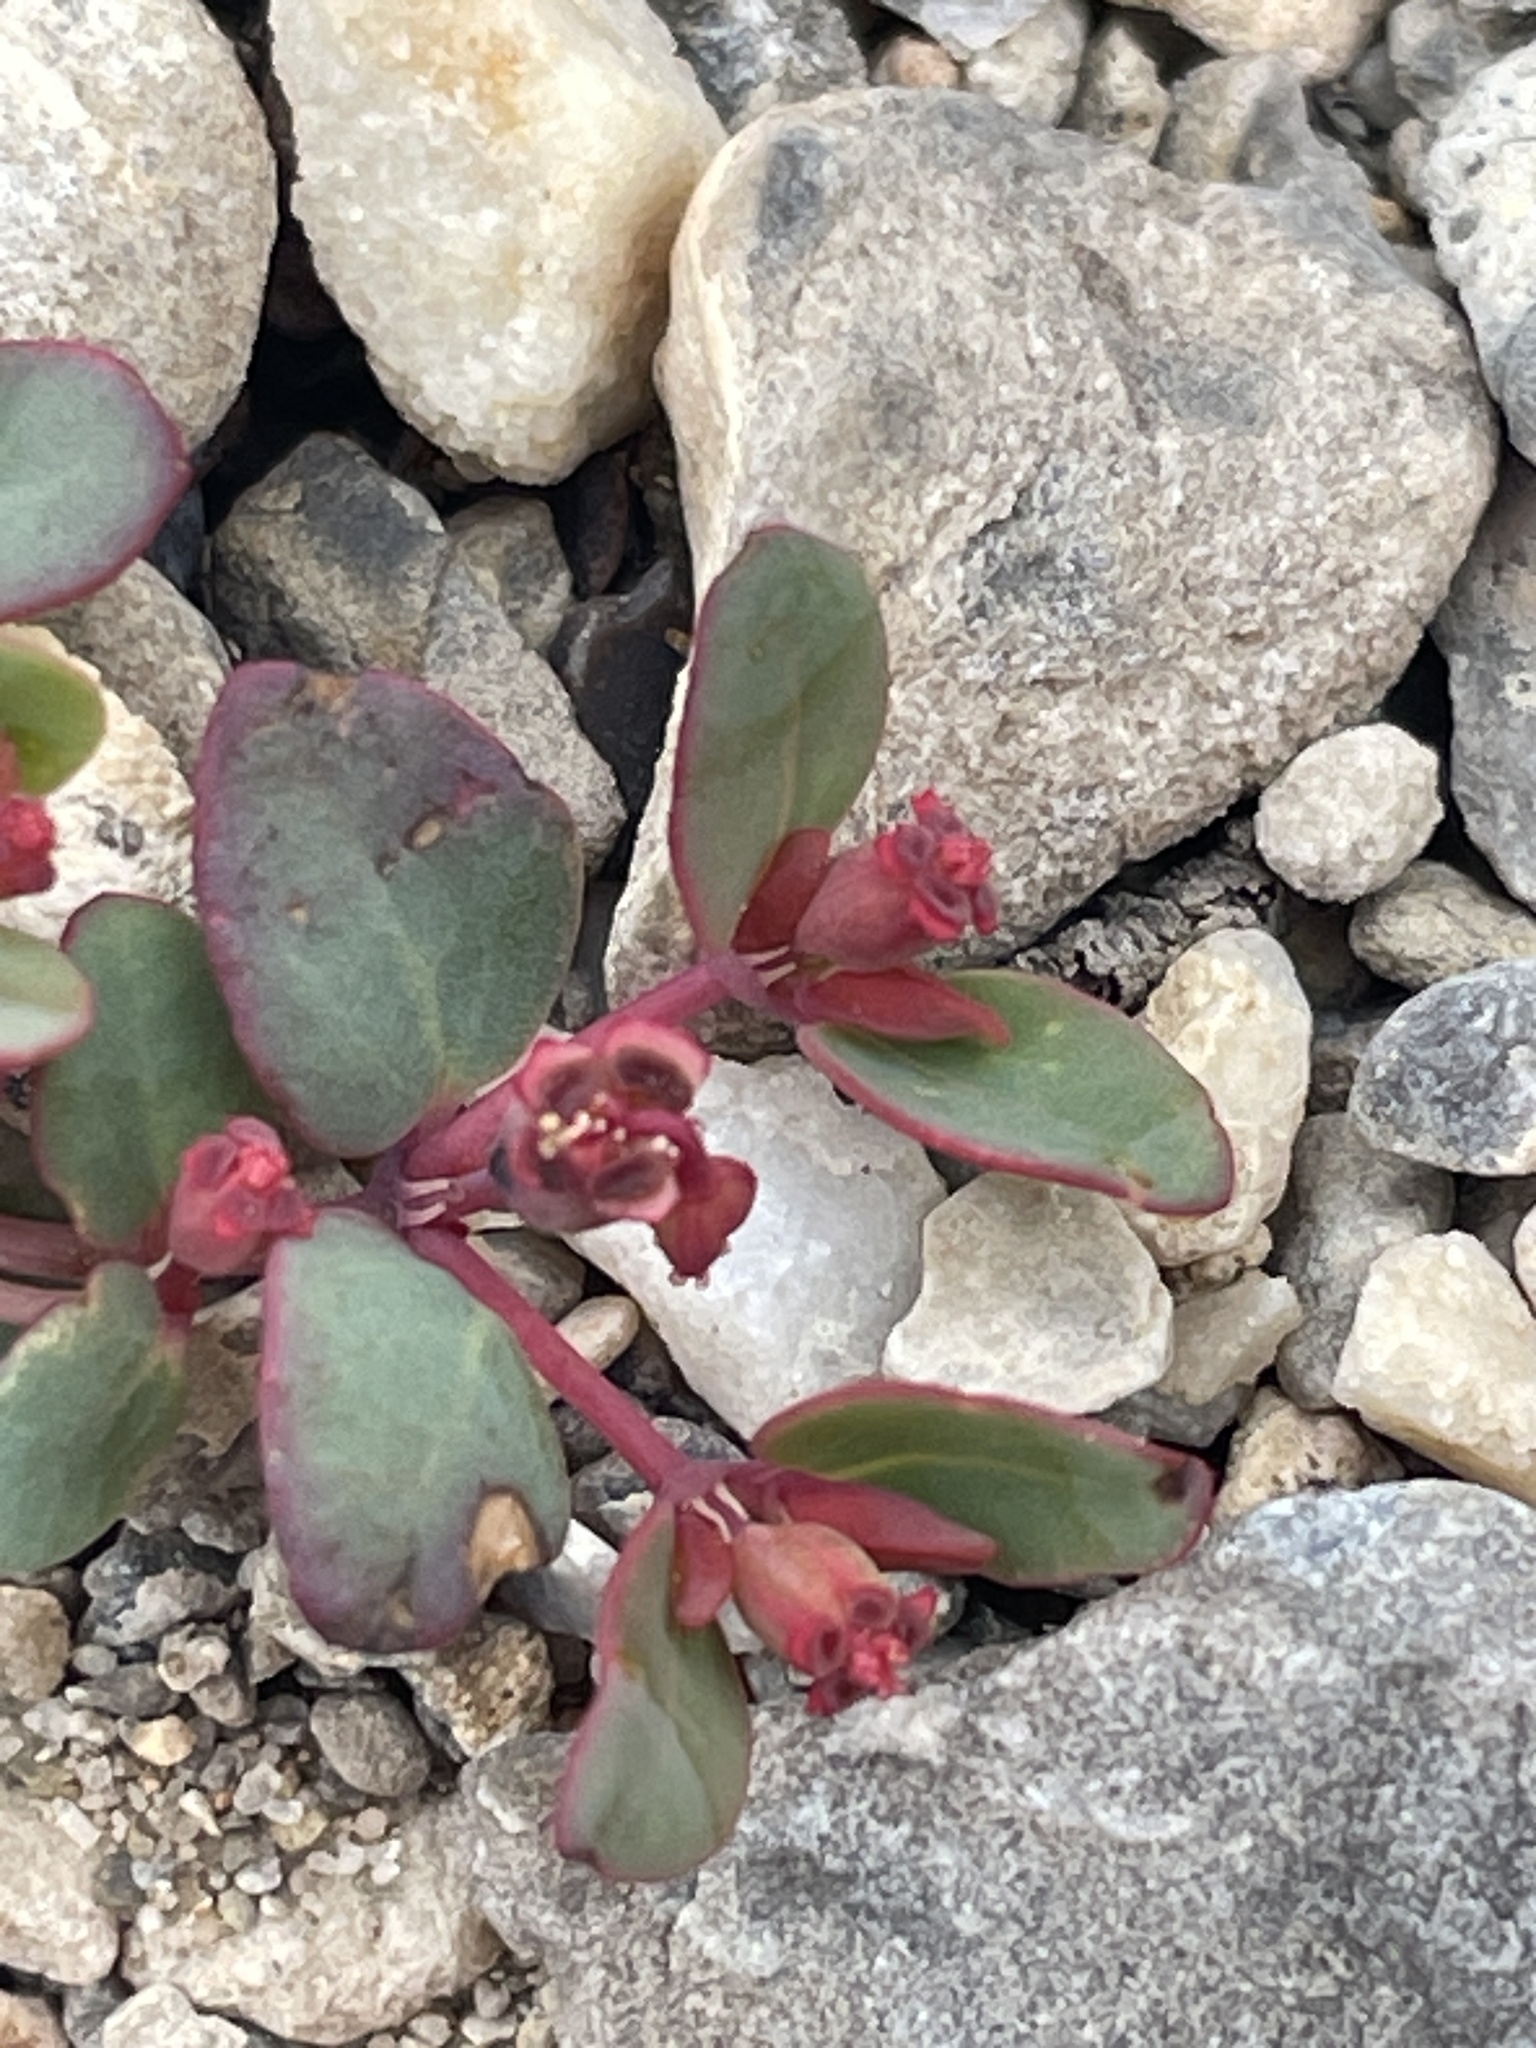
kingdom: Plantae
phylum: Tracheophyta
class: Magnoliopsida
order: Malpighiales
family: Euphorbiaceae
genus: Euphorbia
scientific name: Euphorbia fendleri
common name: Fendler's euphorbia
